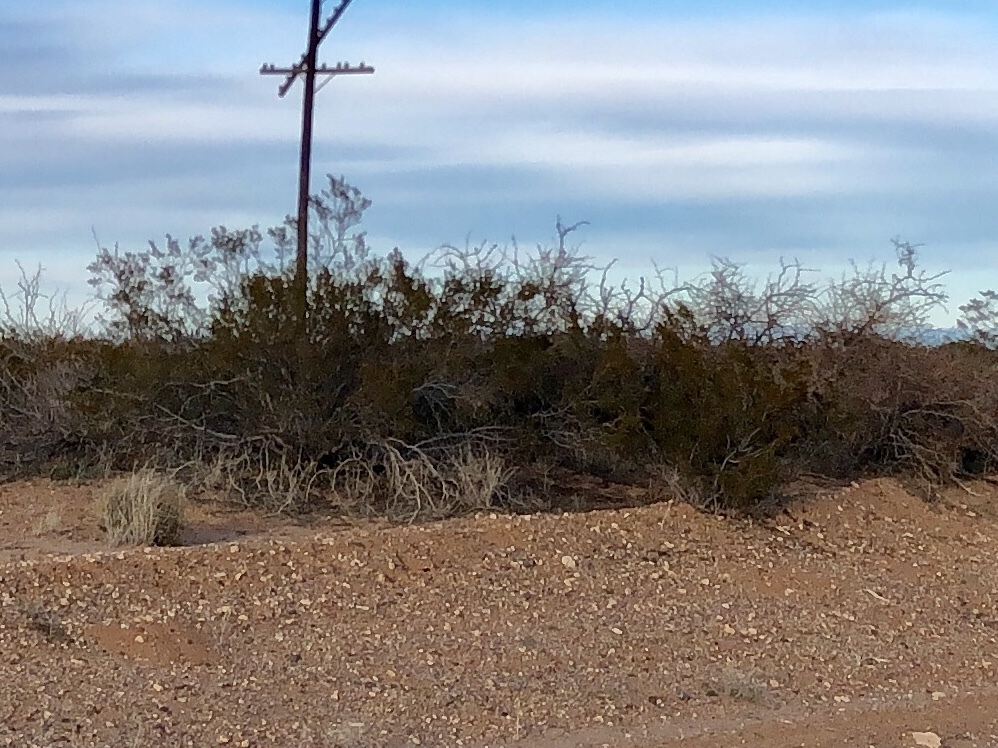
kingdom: Plantae
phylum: Tracheophyta
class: Magnoliopsida
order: Zygophyllales
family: Zygophyllaceae
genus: Larrea
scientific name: Larrea tridentata
